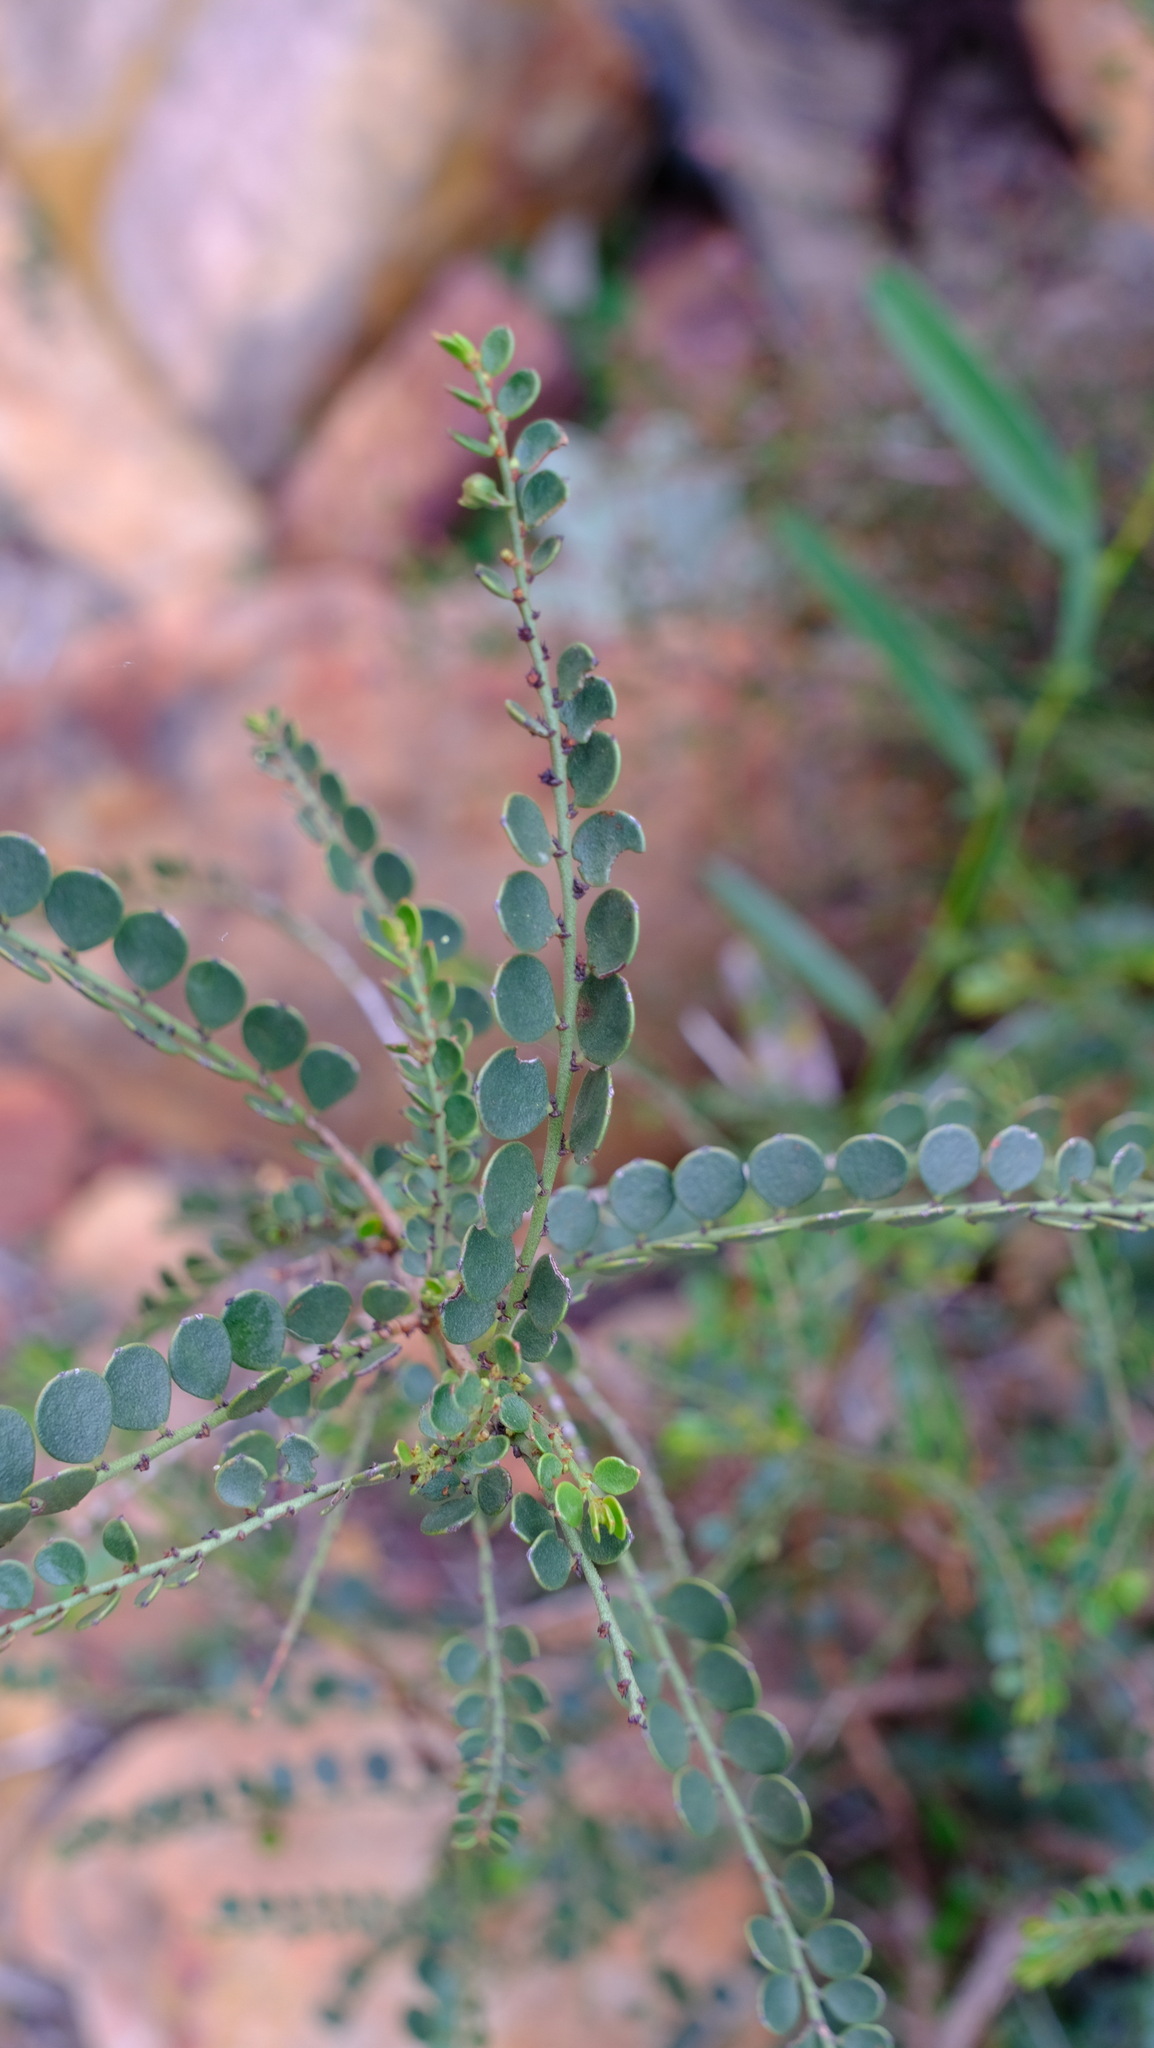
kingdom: Plantae
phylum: Tracheophyta
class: Magnoliopsida
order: Malpighiales
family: Phyllanthaceae
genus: Synostemon
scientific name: Synostemon crassifolius
